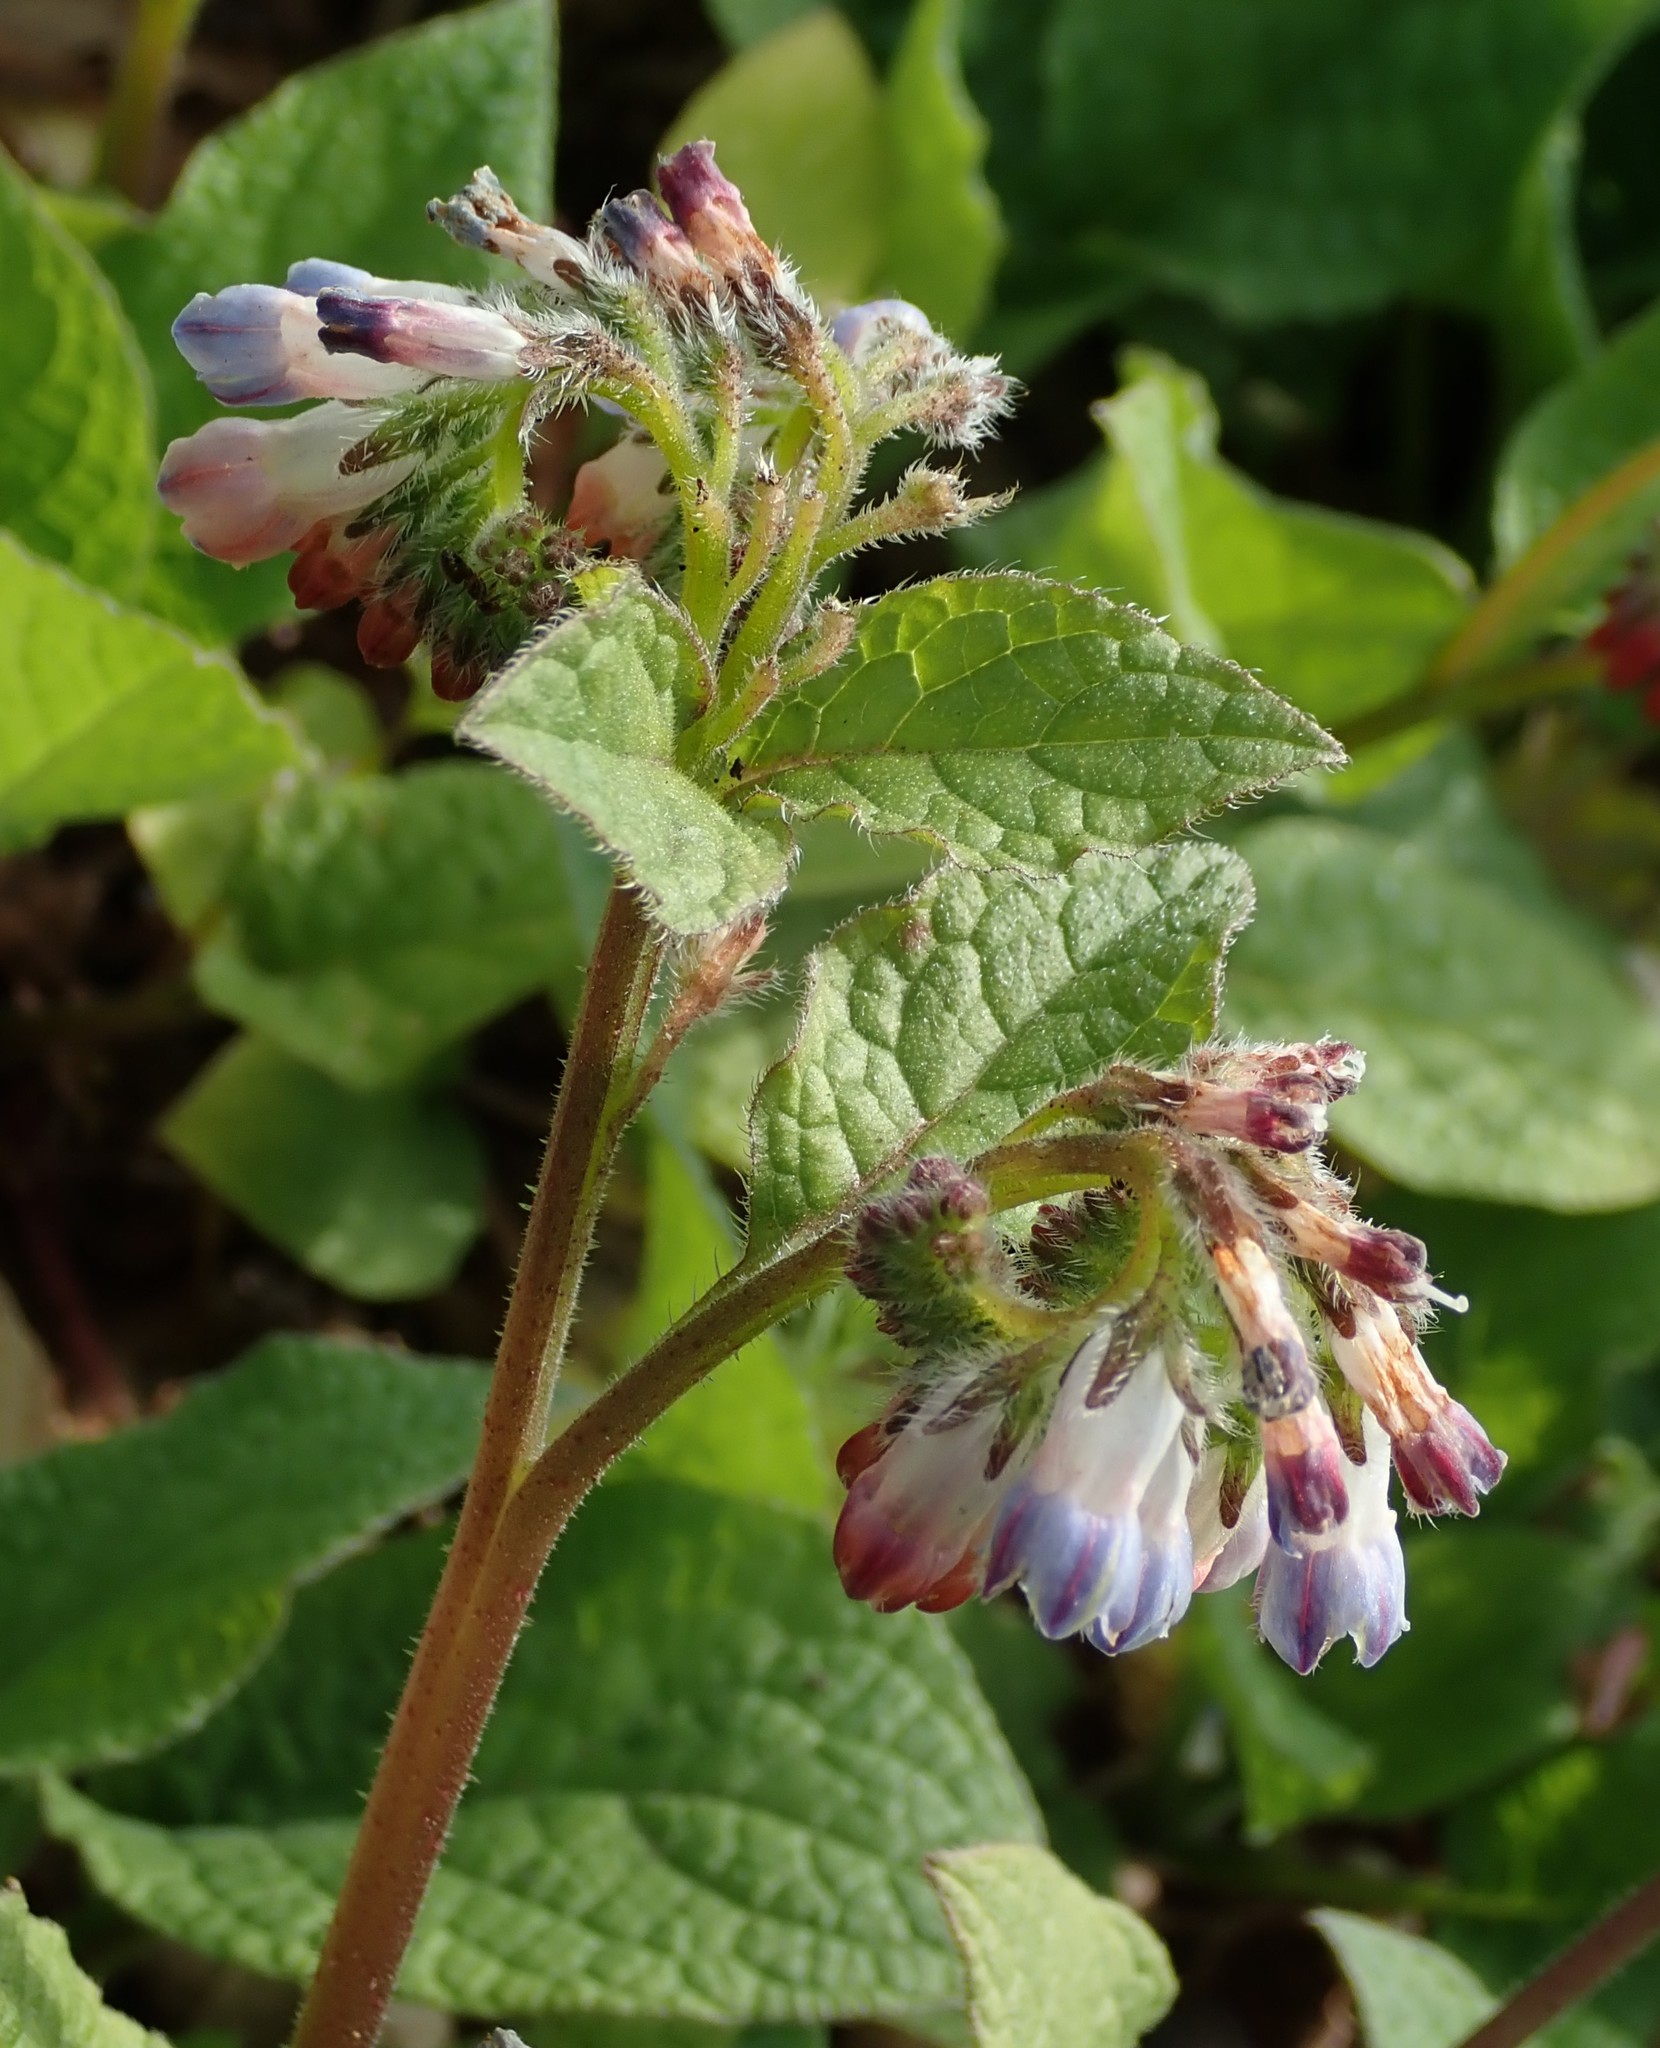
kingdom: Plantae
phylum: Tracheophyta
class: Magnoliopsida
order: Boraginales
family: Boraginaceae
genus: Symphytum
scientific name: Symphytum hidcotense
